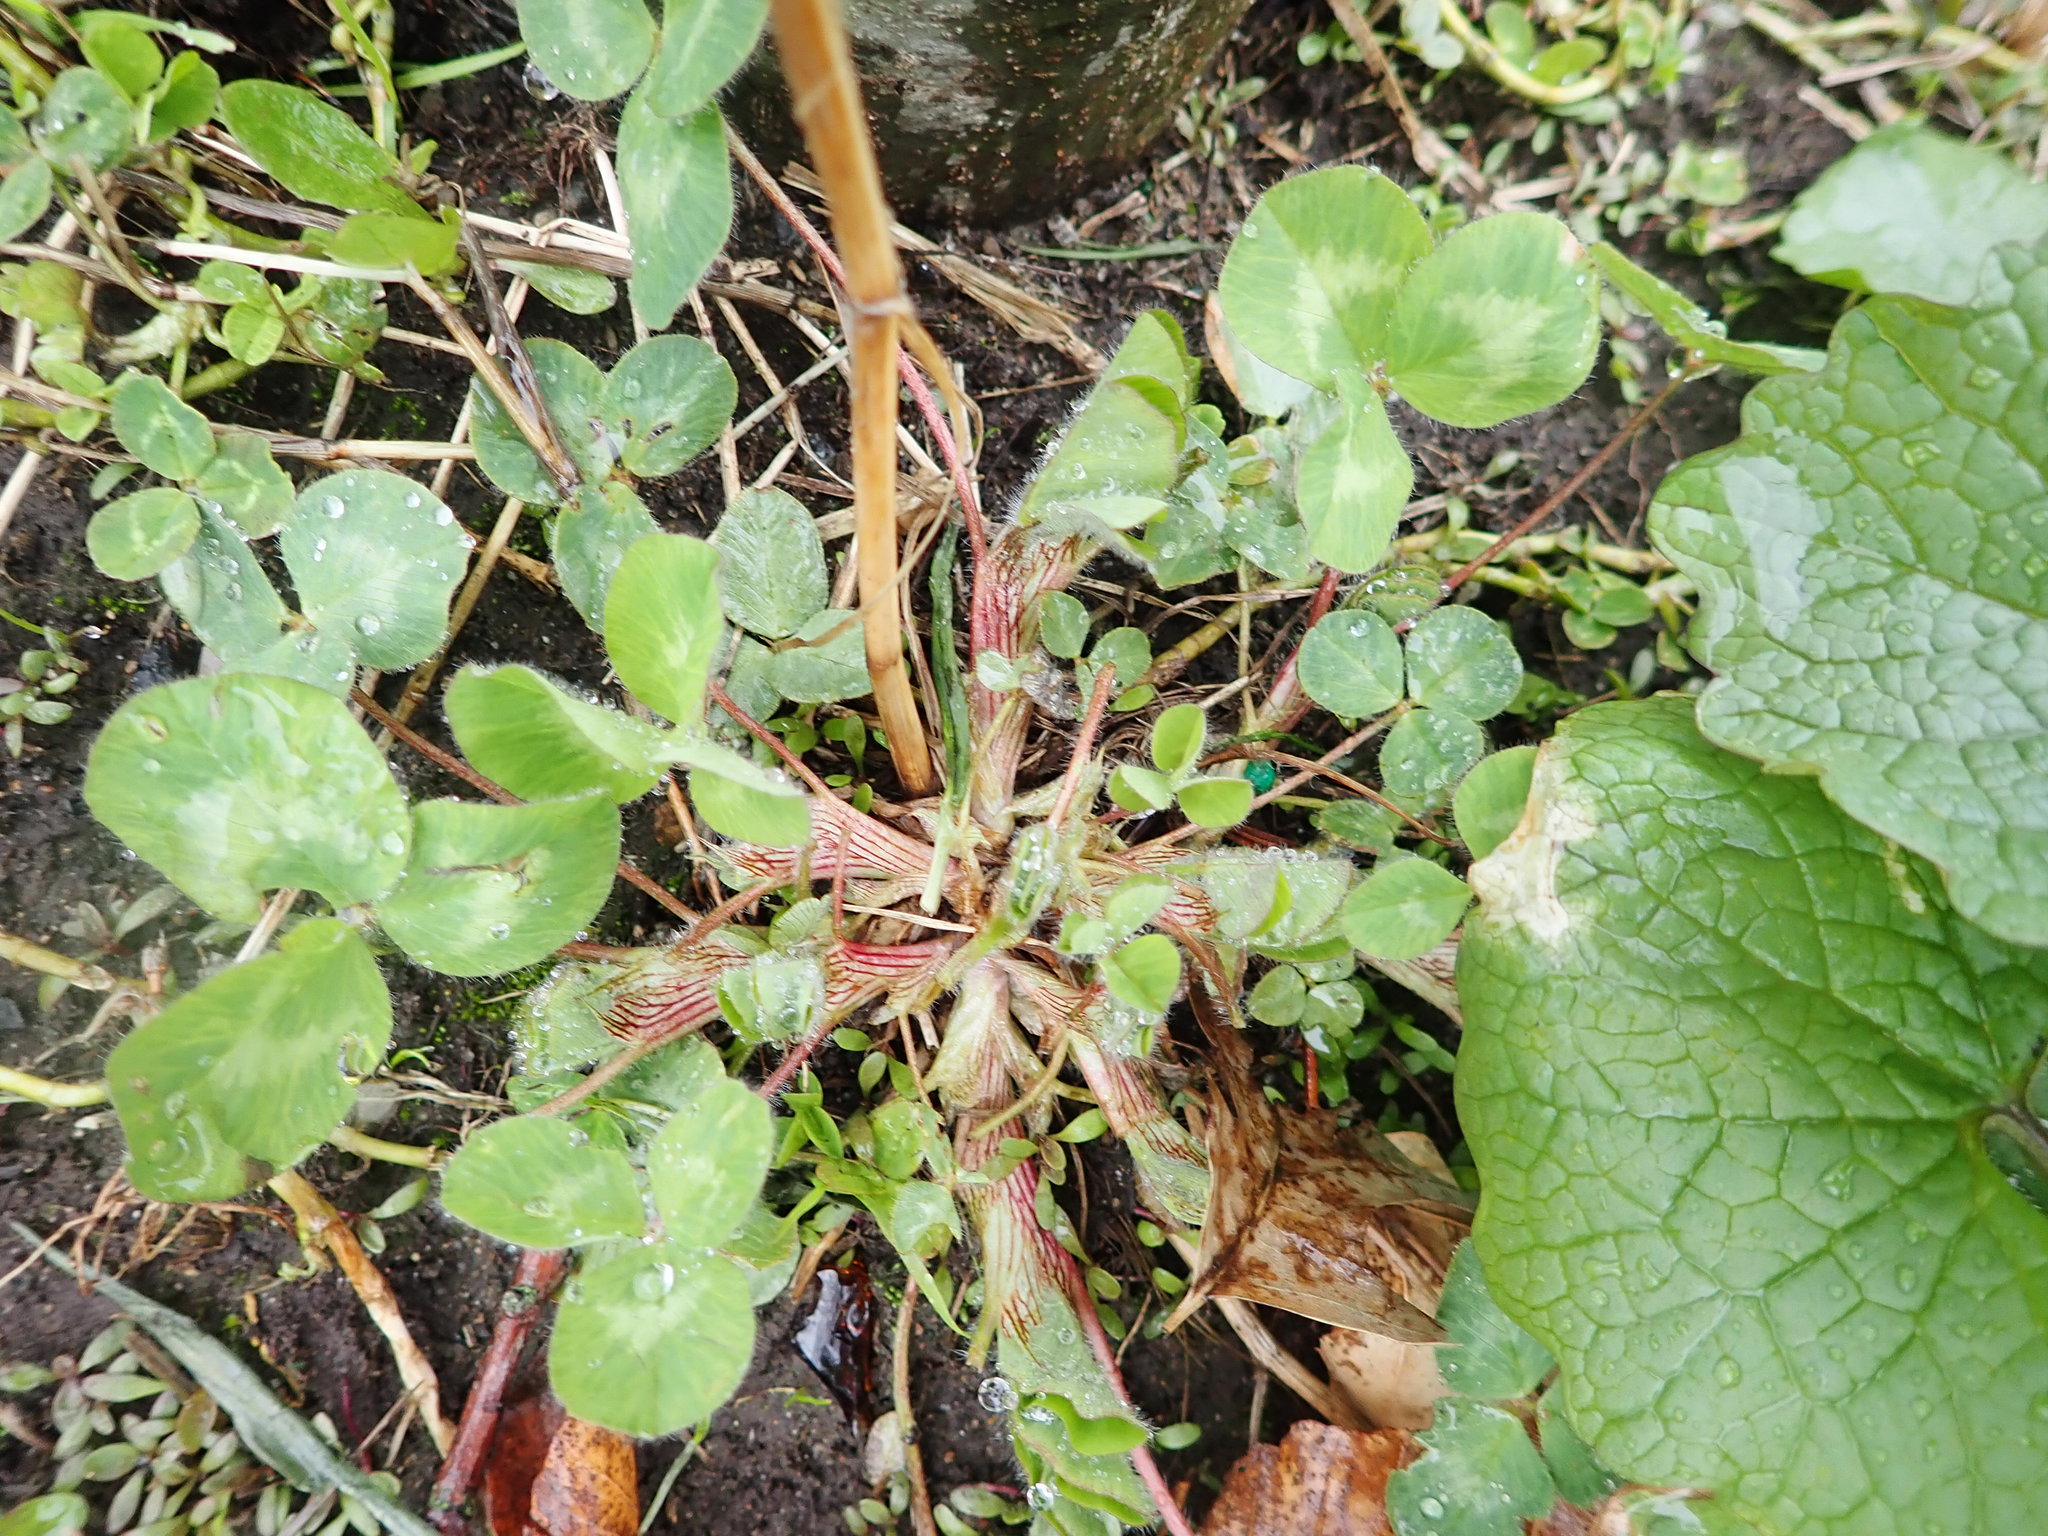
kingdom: Plantae
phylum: Tracheophyta
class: Magnoliopsida
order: Fabales
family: Fabaceae
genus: Trifolium
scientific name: Trifolium pratense
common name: Red clover
